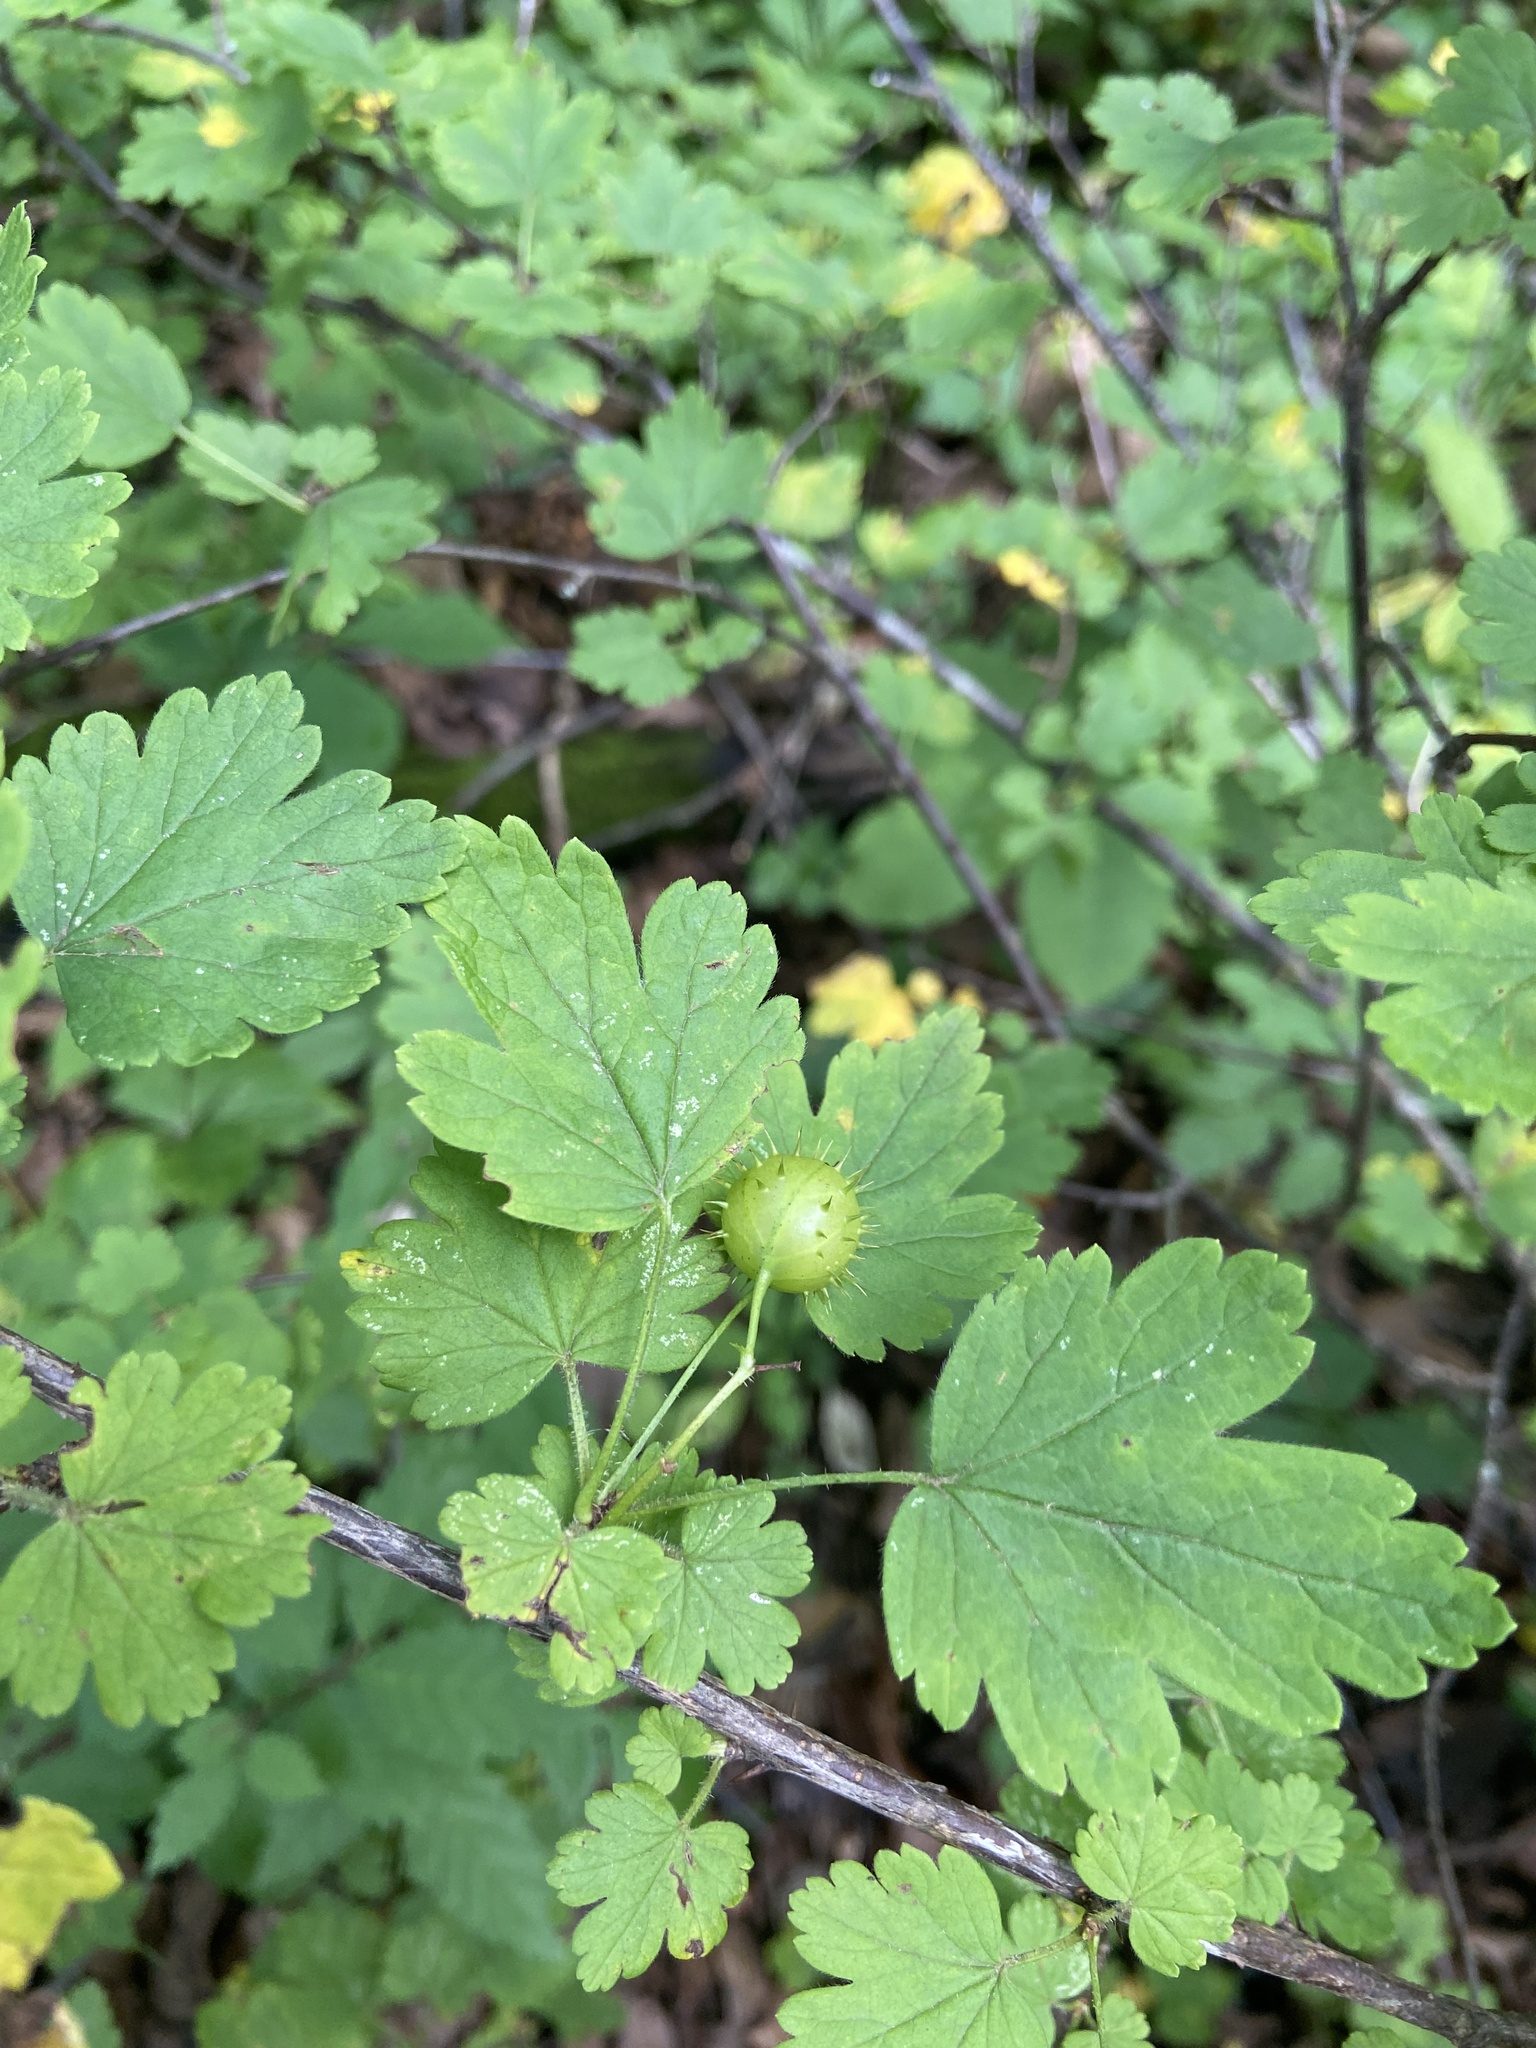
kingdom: Plantae
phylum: Tracheophyta
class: Magnoliopsida
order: Saxifragales
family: Grossulariaceae
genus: Ribes
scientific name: Ribes cynosbati
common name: American gooseberry
